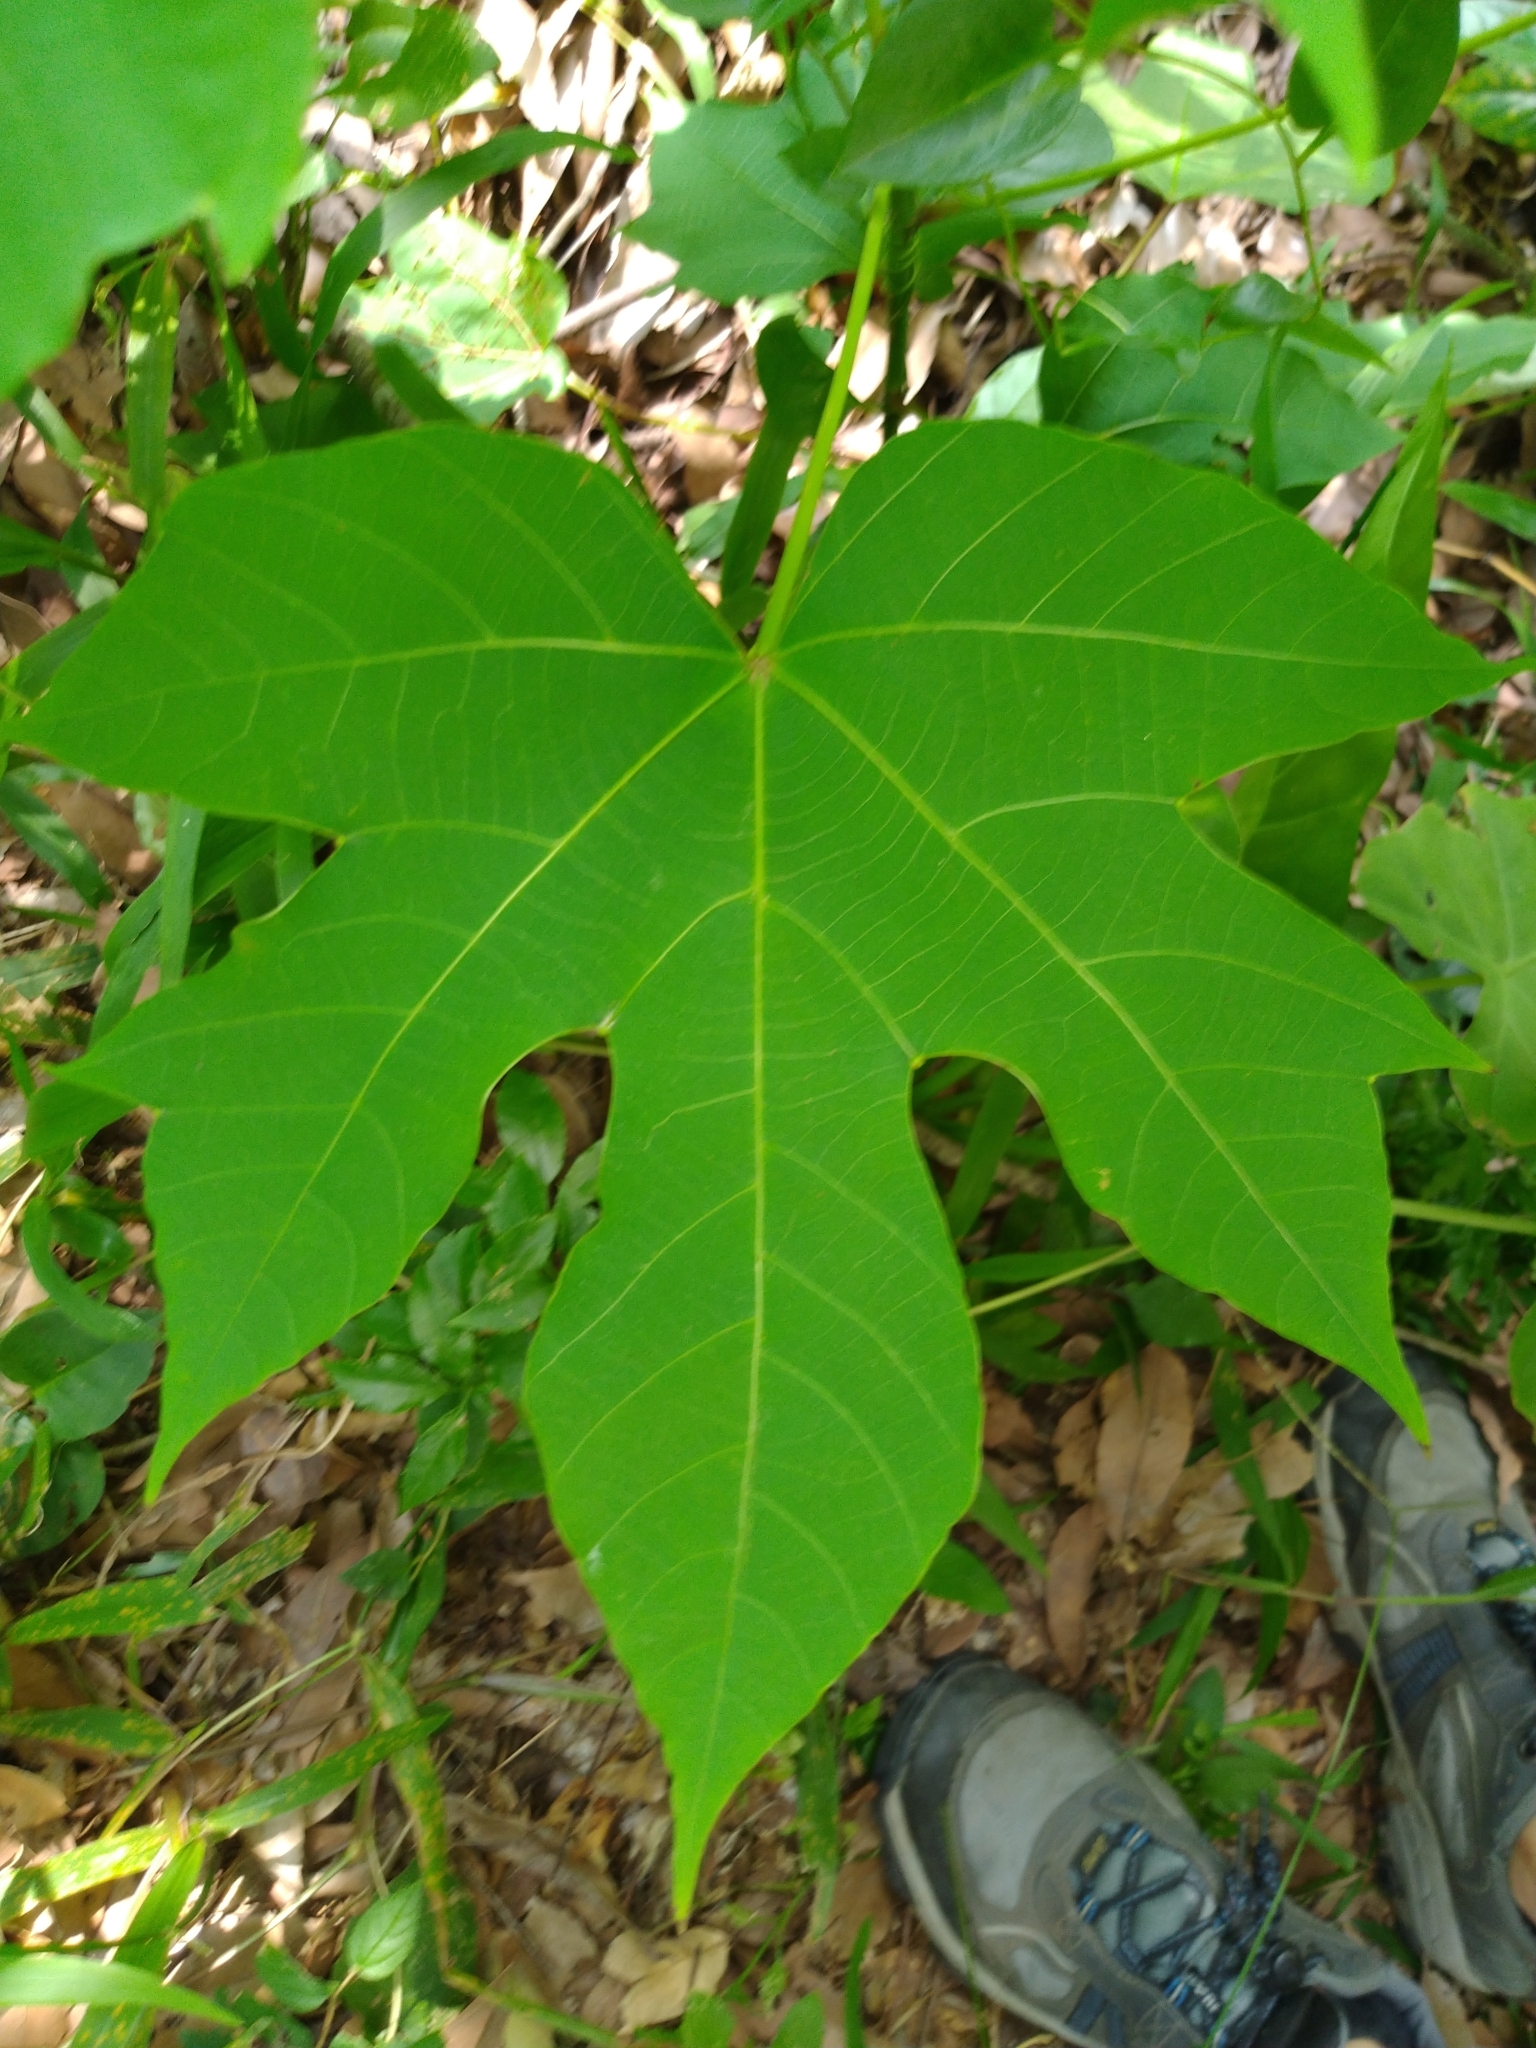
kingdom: Plantae
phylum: Tracheophyta
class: Magnoliopsida
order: Malpighiales
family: Euphorbiaceae
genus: Vernicia
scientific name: Vernicia montana
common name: Mu oil tree
